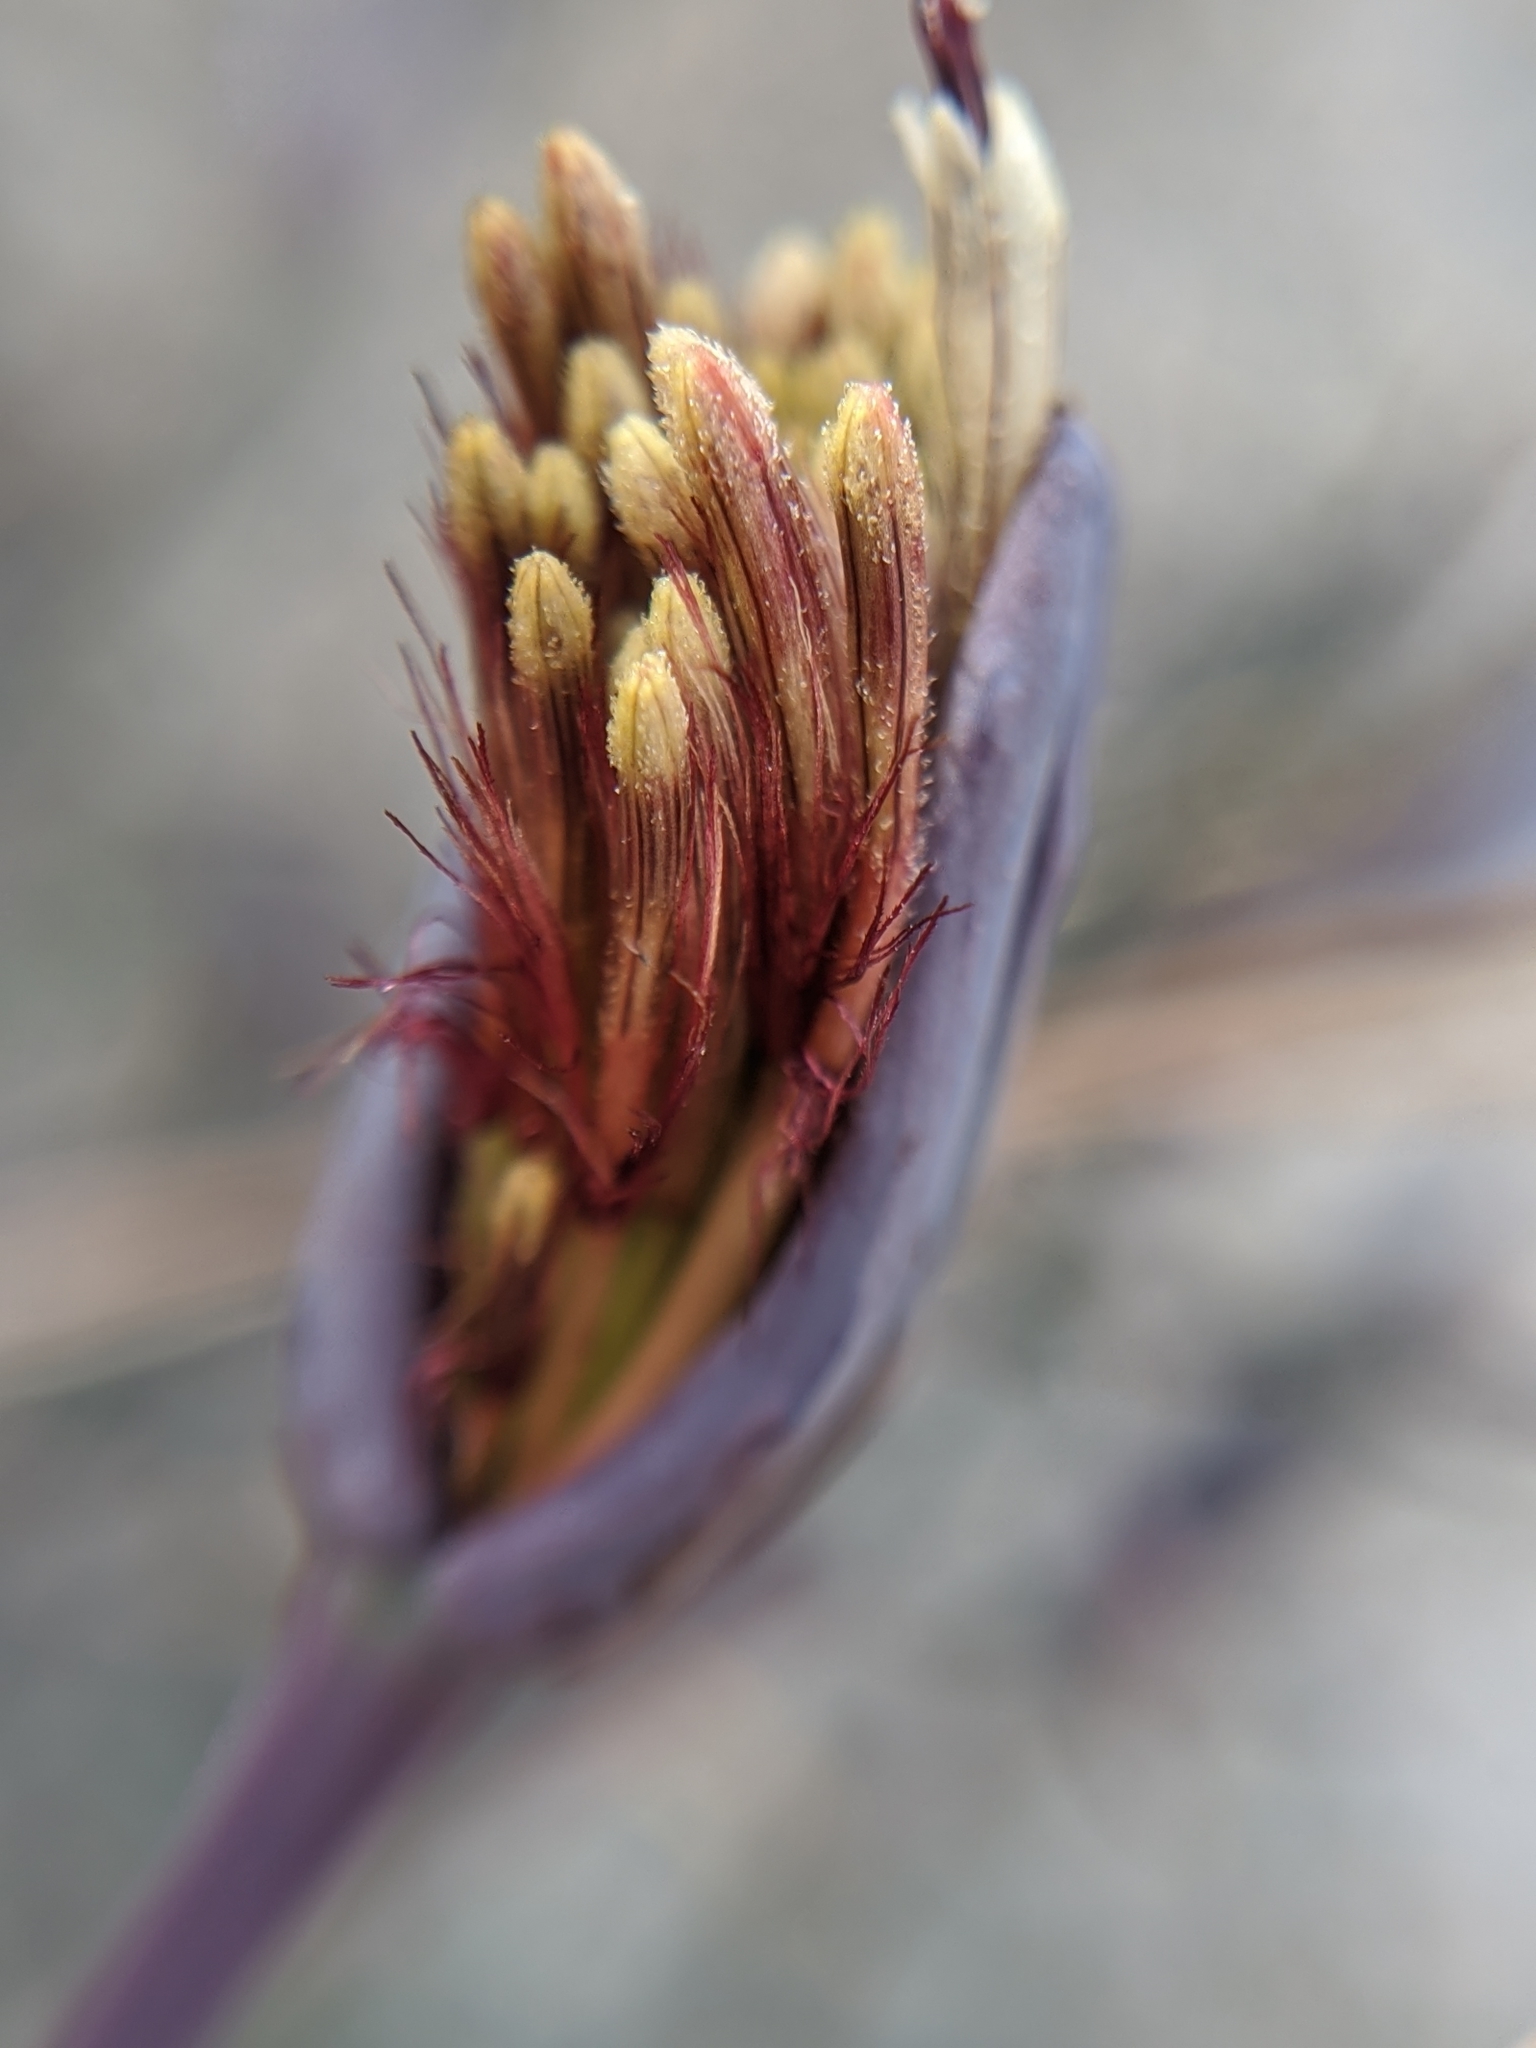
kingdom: Plantae
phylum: Tracheophyta
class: Magnoliopsida
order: Asterales
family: Asteraceae
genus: Porophyllum
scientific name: Porophyllum gracile
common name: Odora
